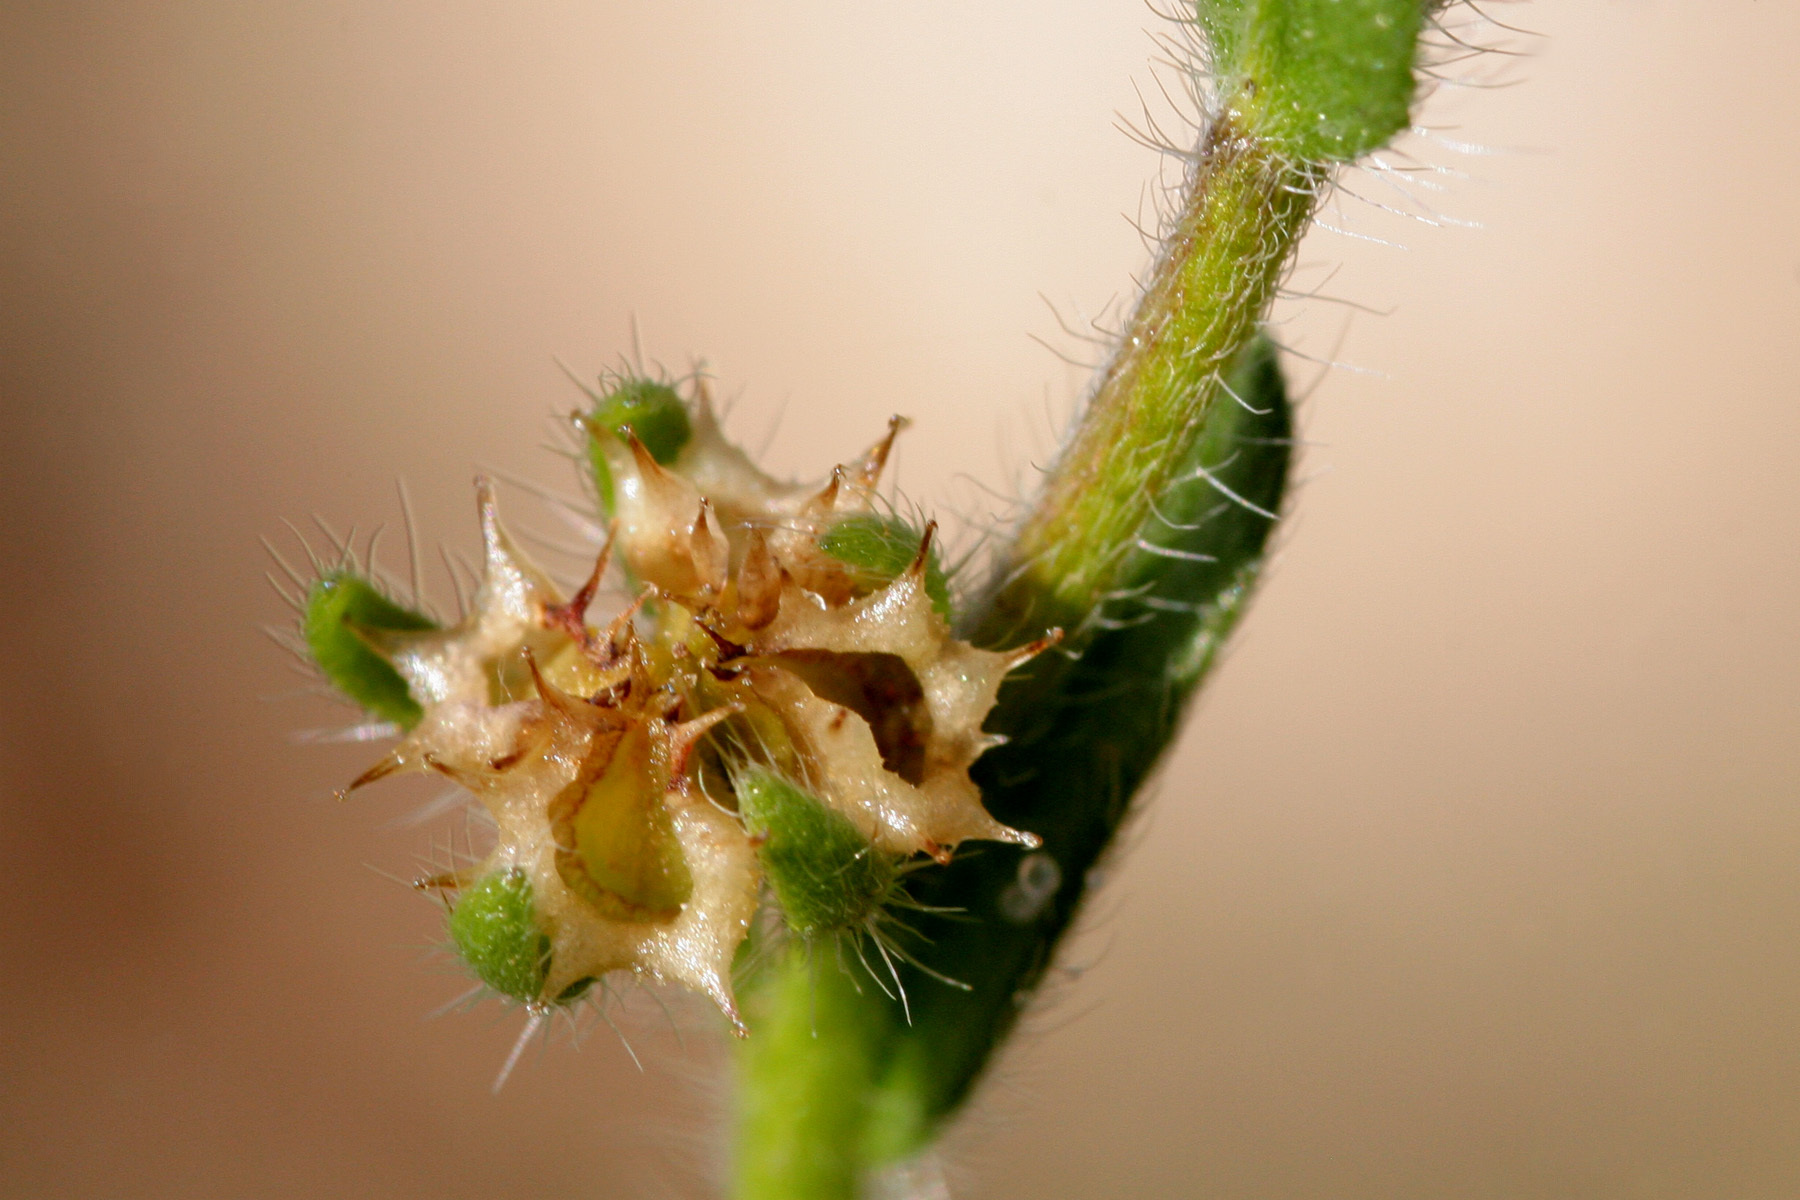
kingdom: Plantae
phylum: Tracheophyta
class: Magnoliopsida
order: Boraginales
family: Boraginaceae
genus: Lappula
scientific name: Lappula occidentalis
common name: Western stickseed
